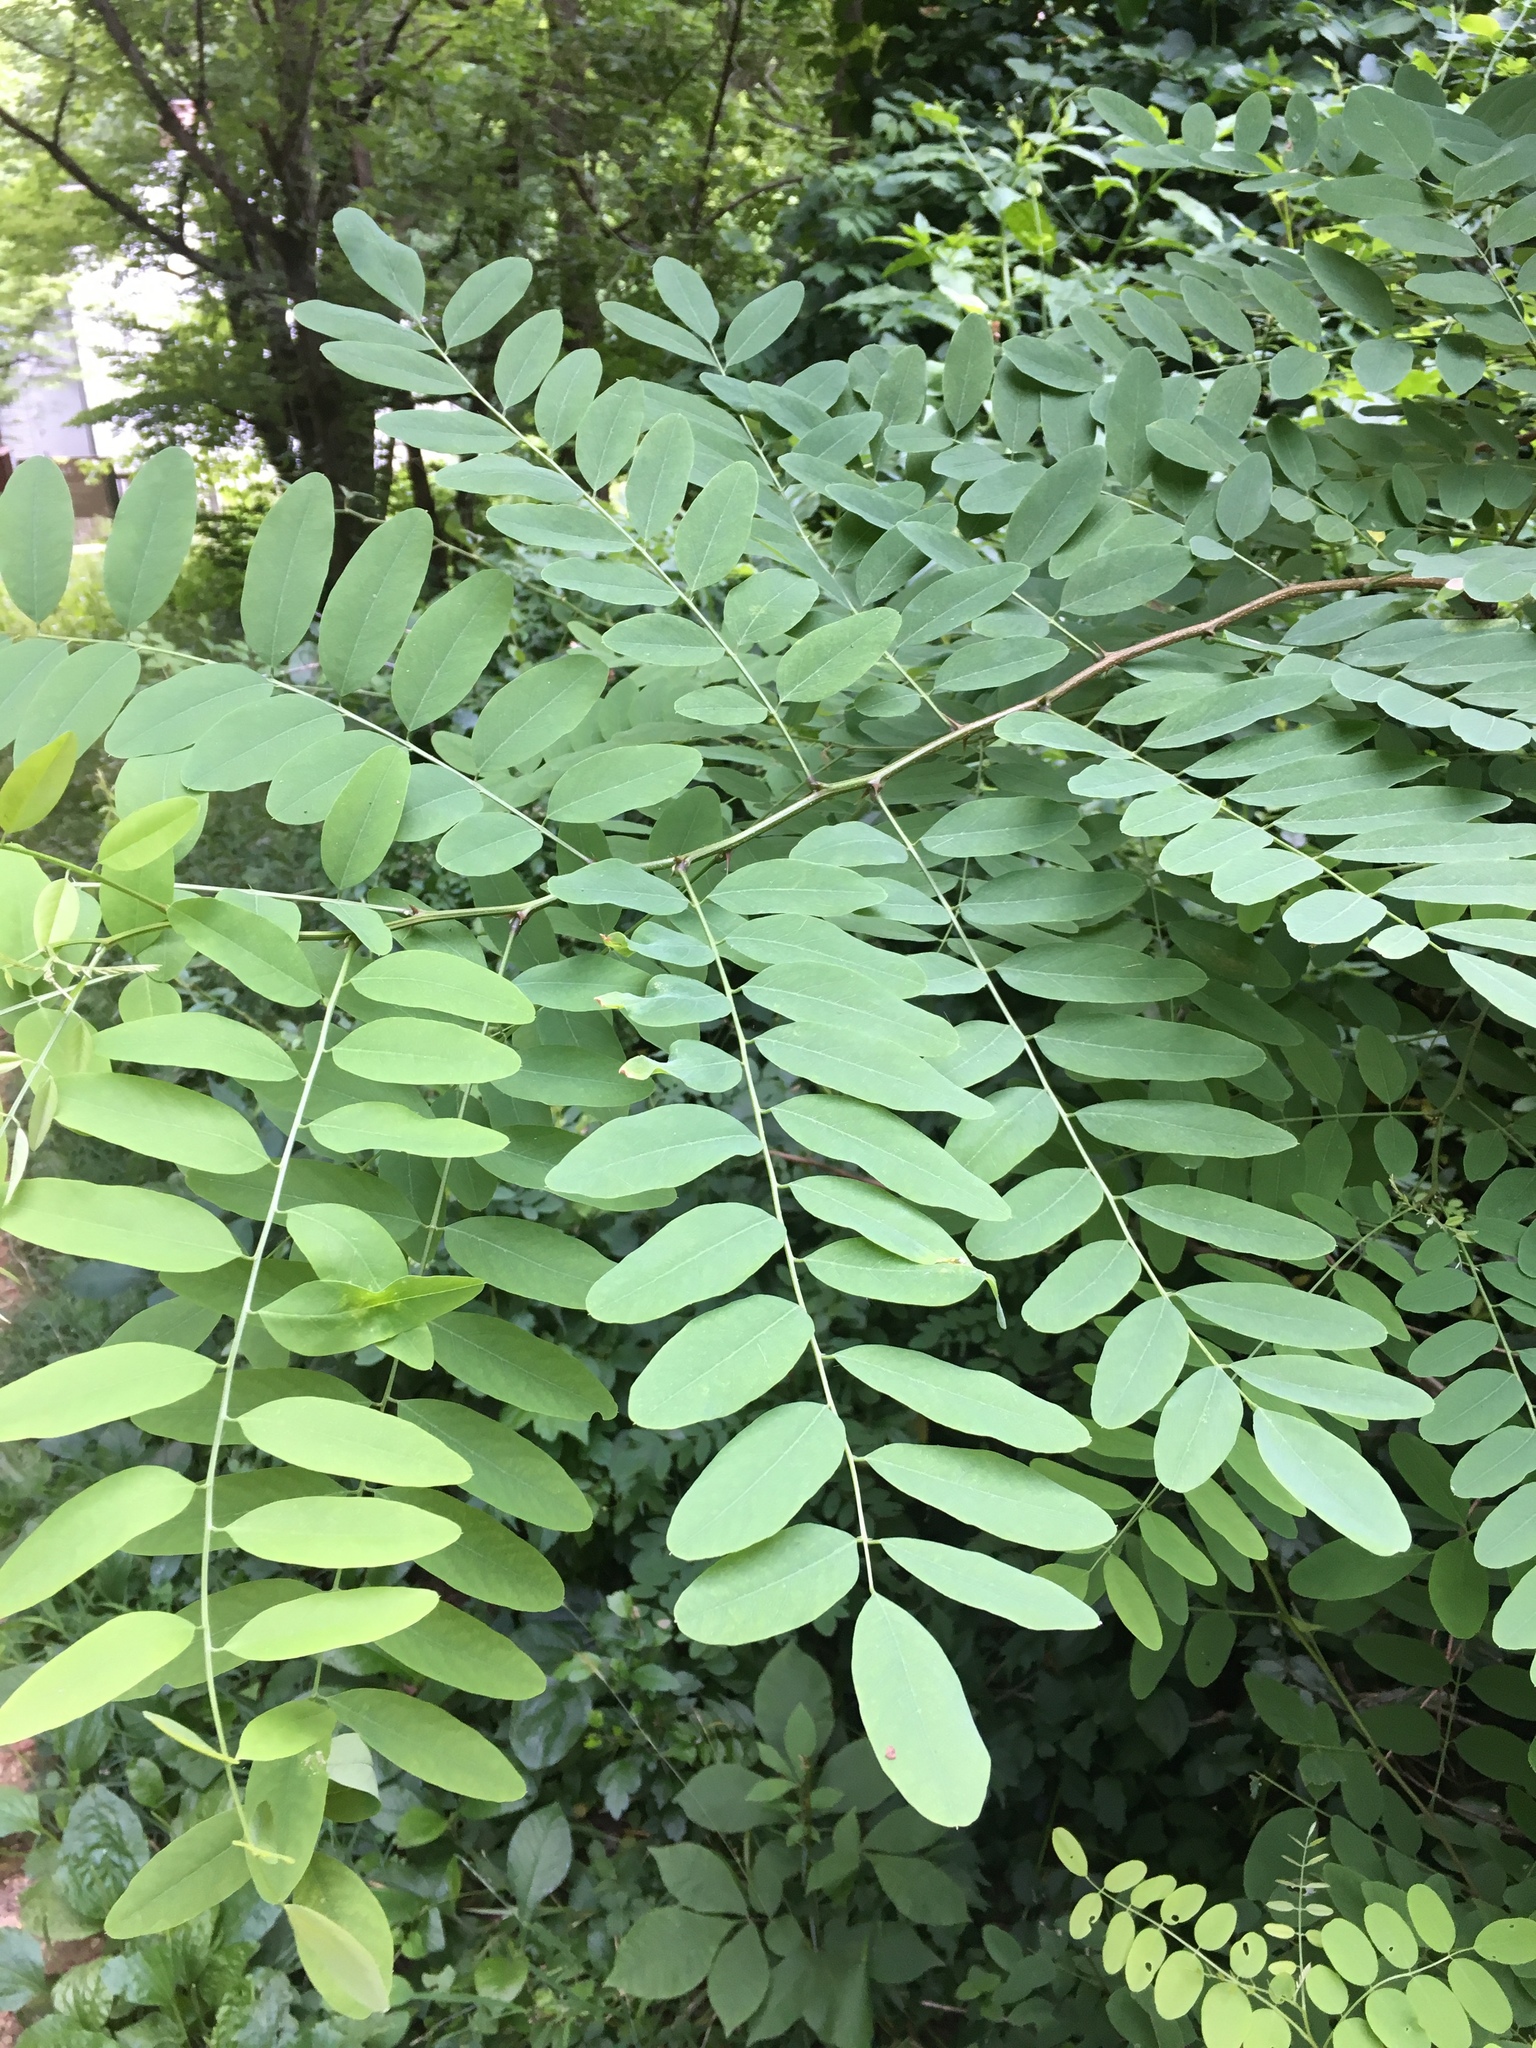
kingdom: Plantae
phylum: Tracheophyta
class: Magnoliopsida
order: Fabales
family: Fabaceae
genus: Robinia
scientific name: Robinia pseudoacacia
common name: Black locust
